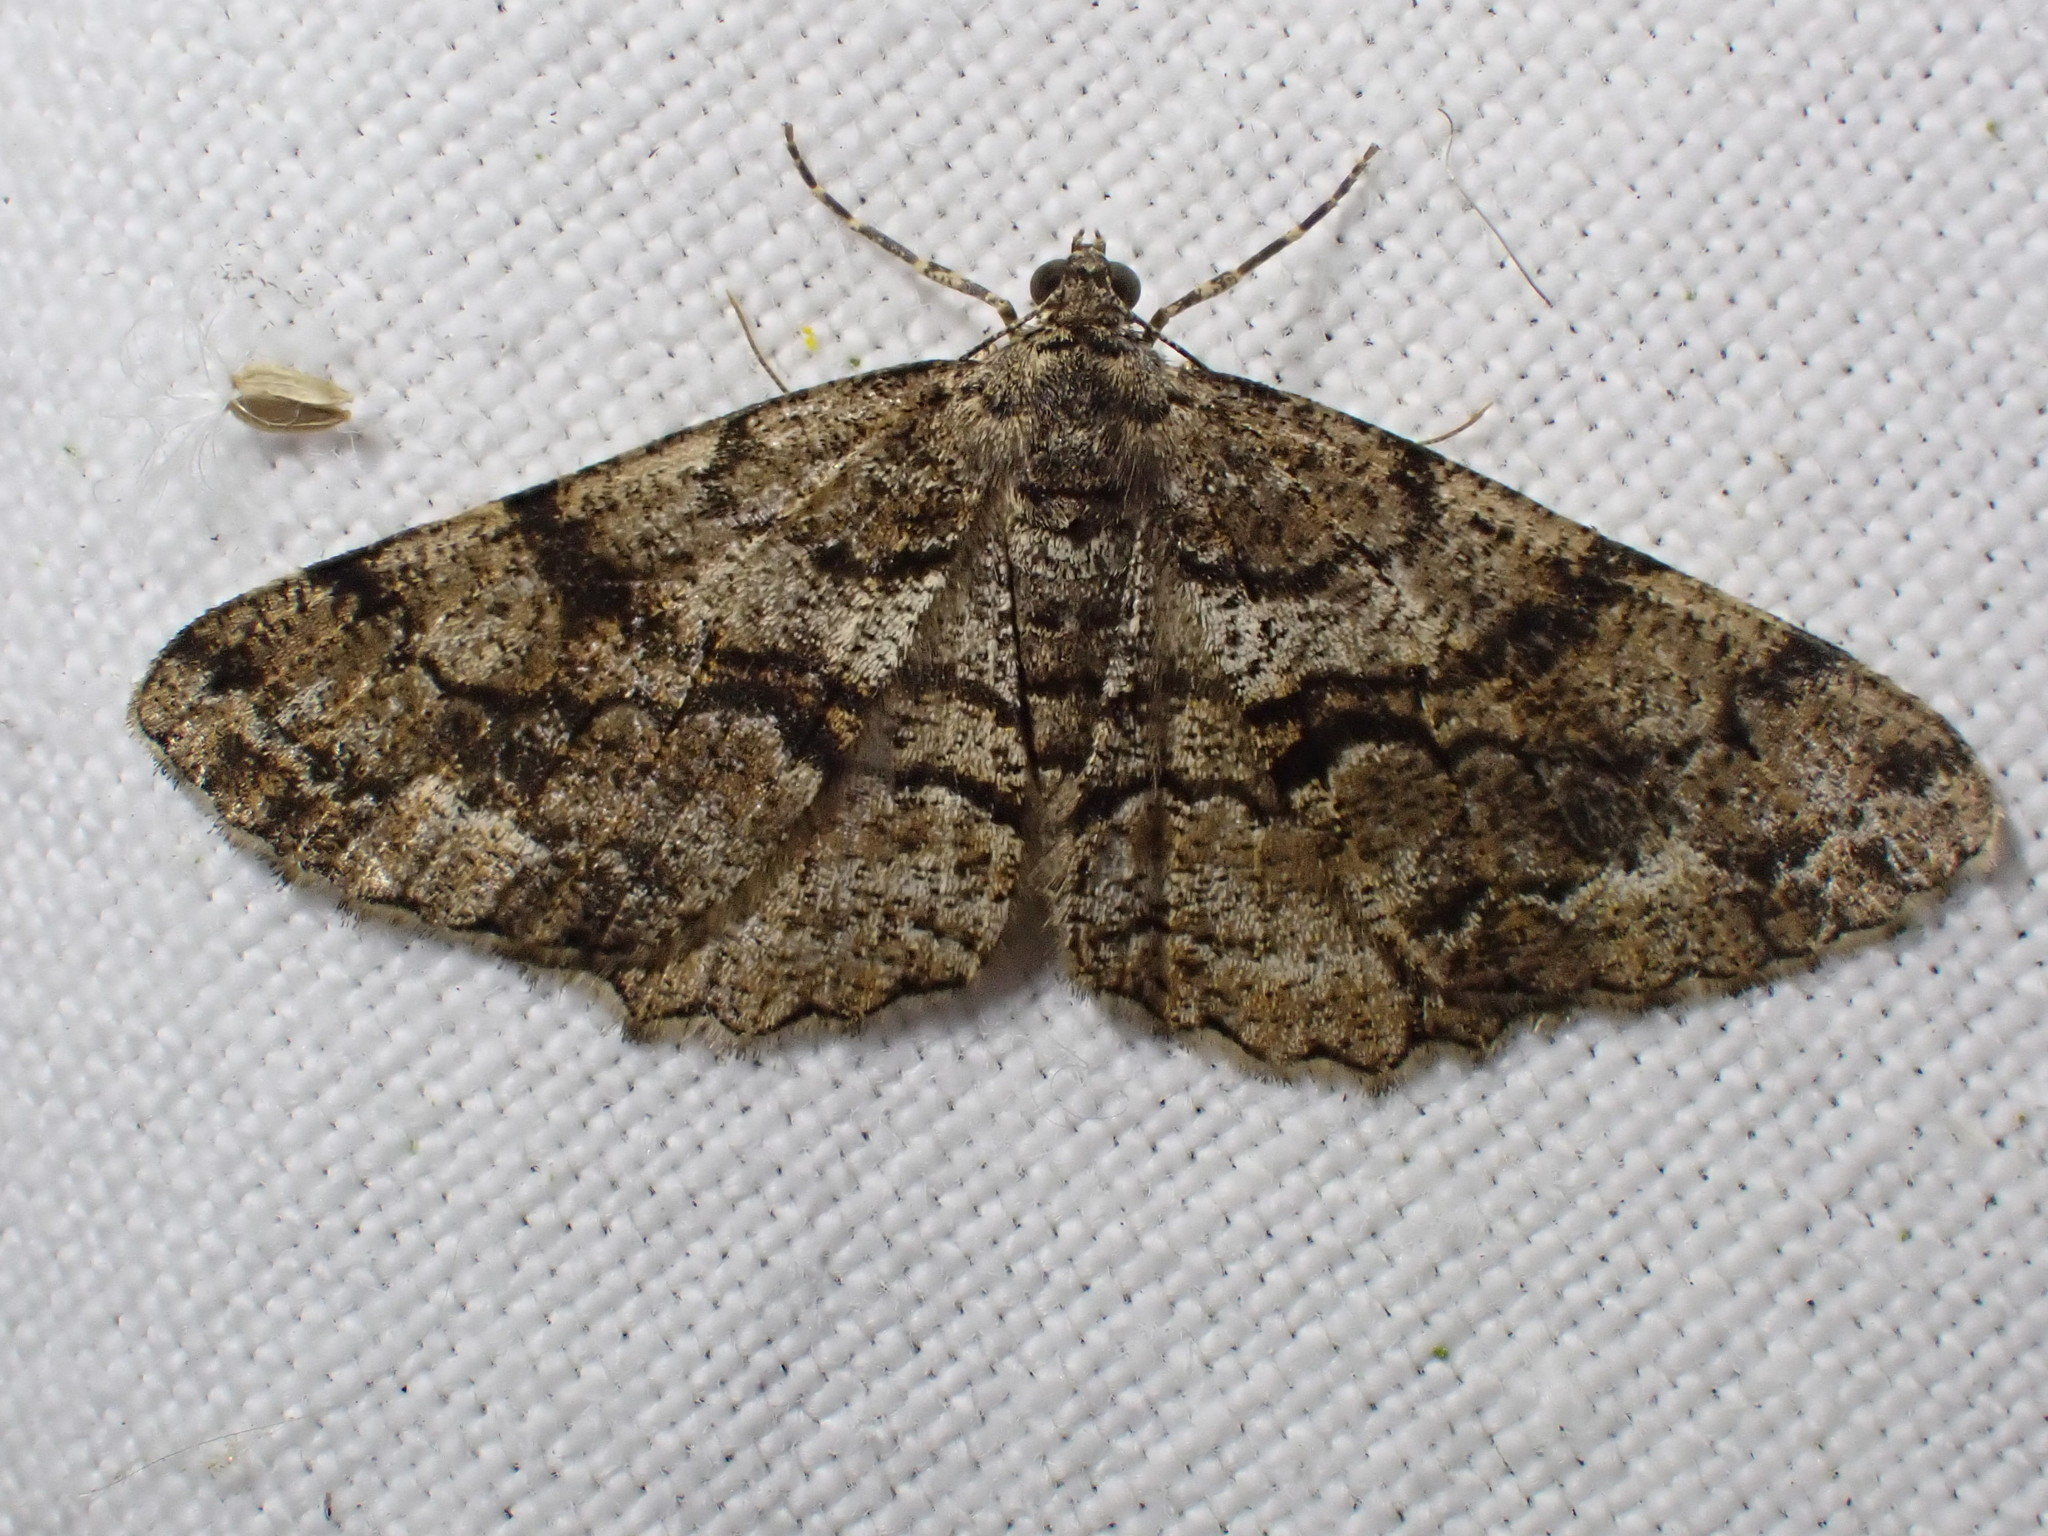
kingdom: Animalia
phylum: Arthropoda
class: Insecta
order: Lepidoptera
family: Geometridae
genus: Peribatodes
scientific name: Peribatodes secundaria
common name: Feathered beauty
